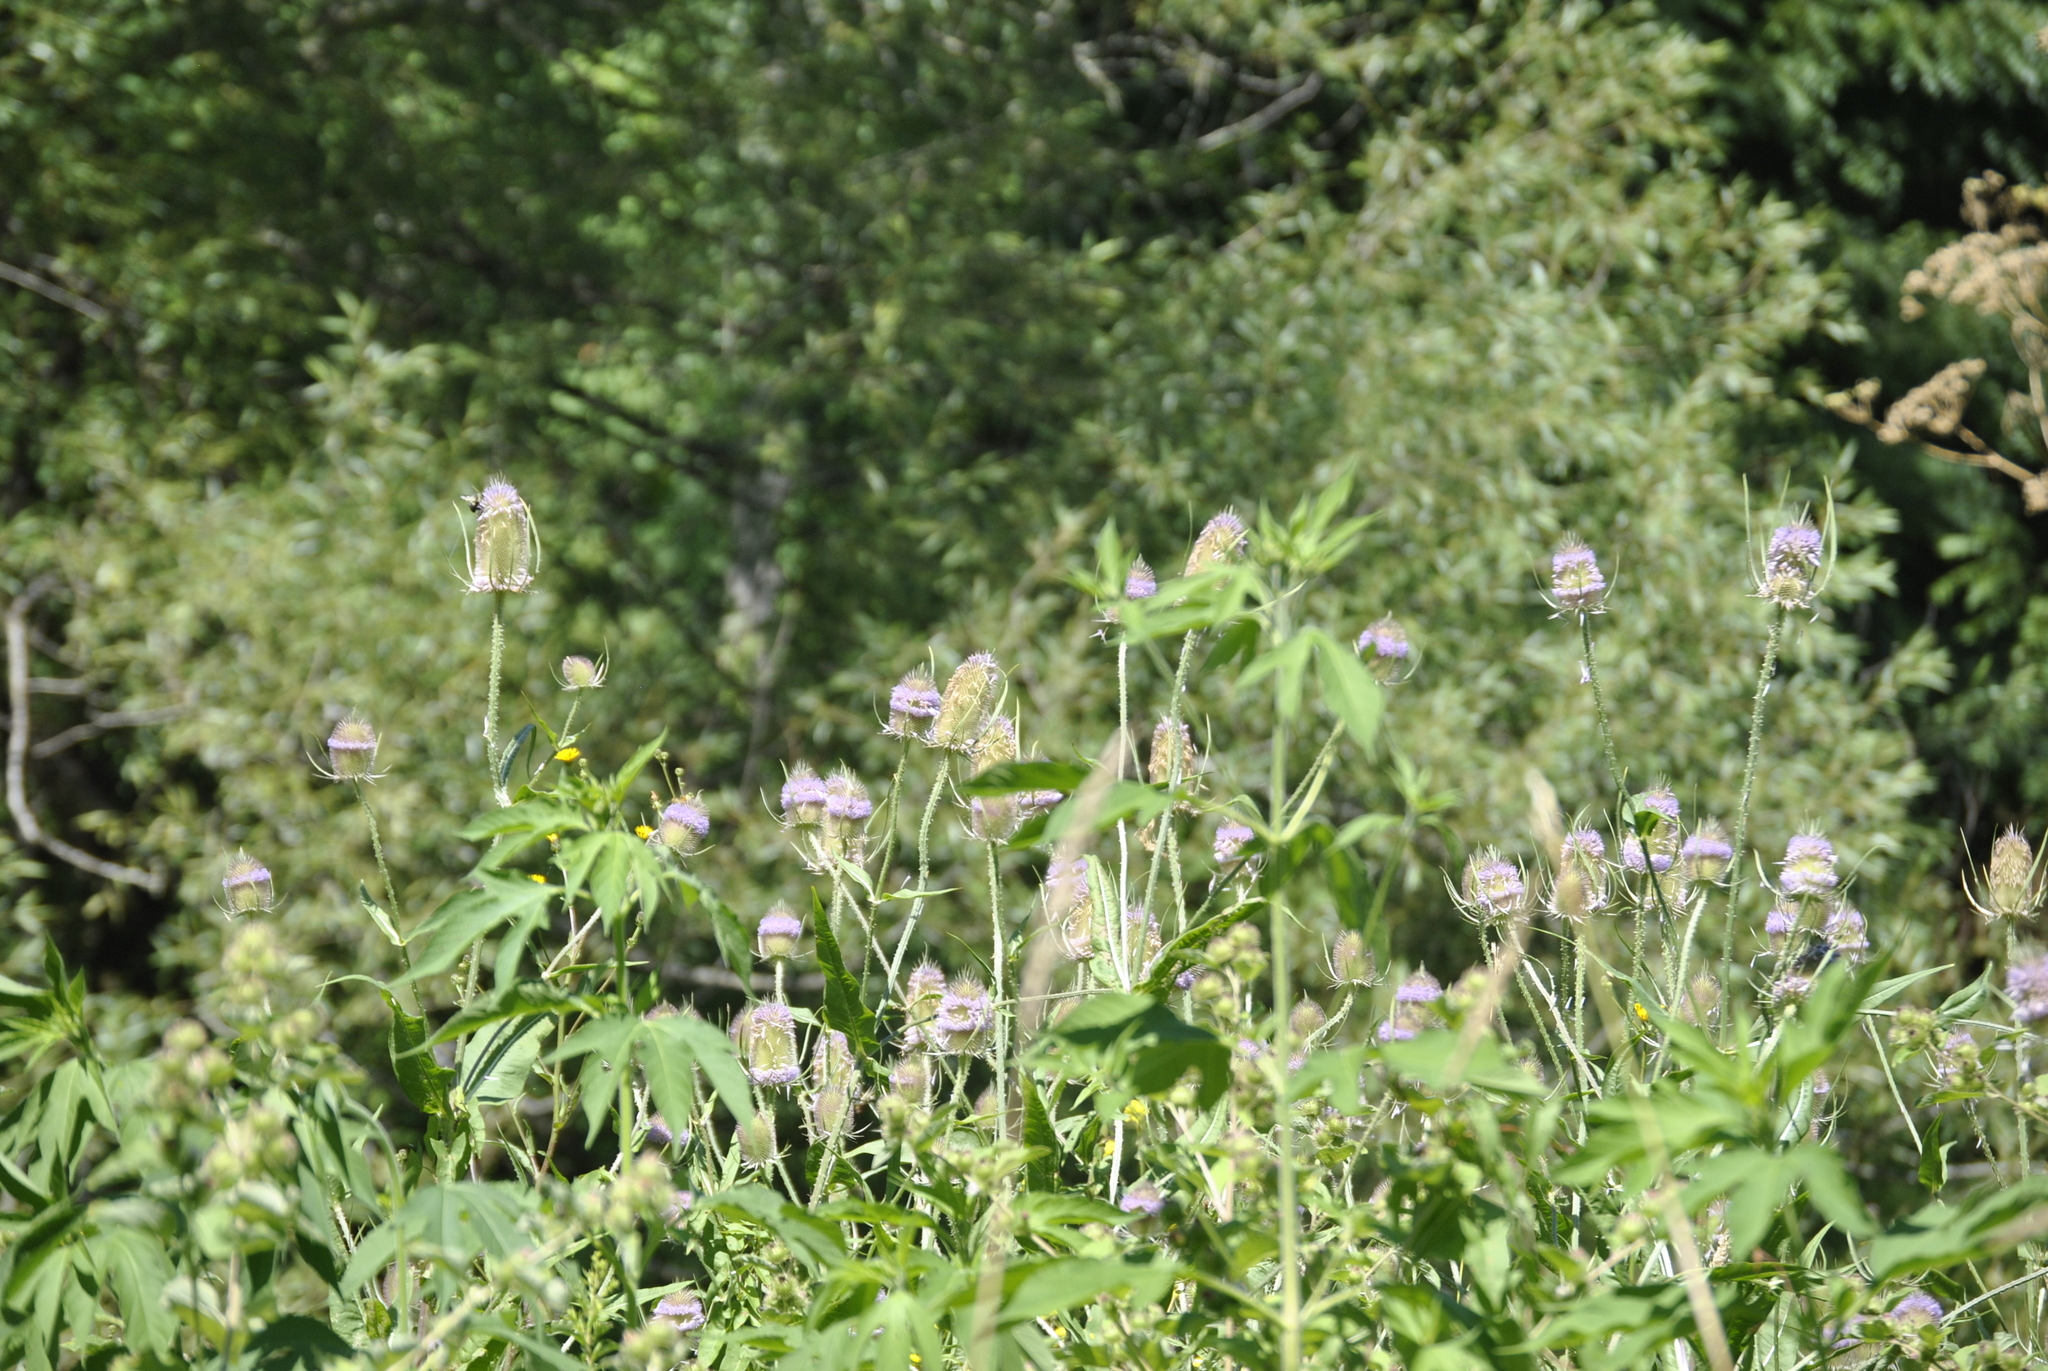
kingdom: Plantae
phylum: Tracheophyta
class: Magnoliopsida
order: Dipsacales
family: Caprifoliaceae
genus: Dipsacus
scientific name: Dipsacus fullonum
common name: Teasel
